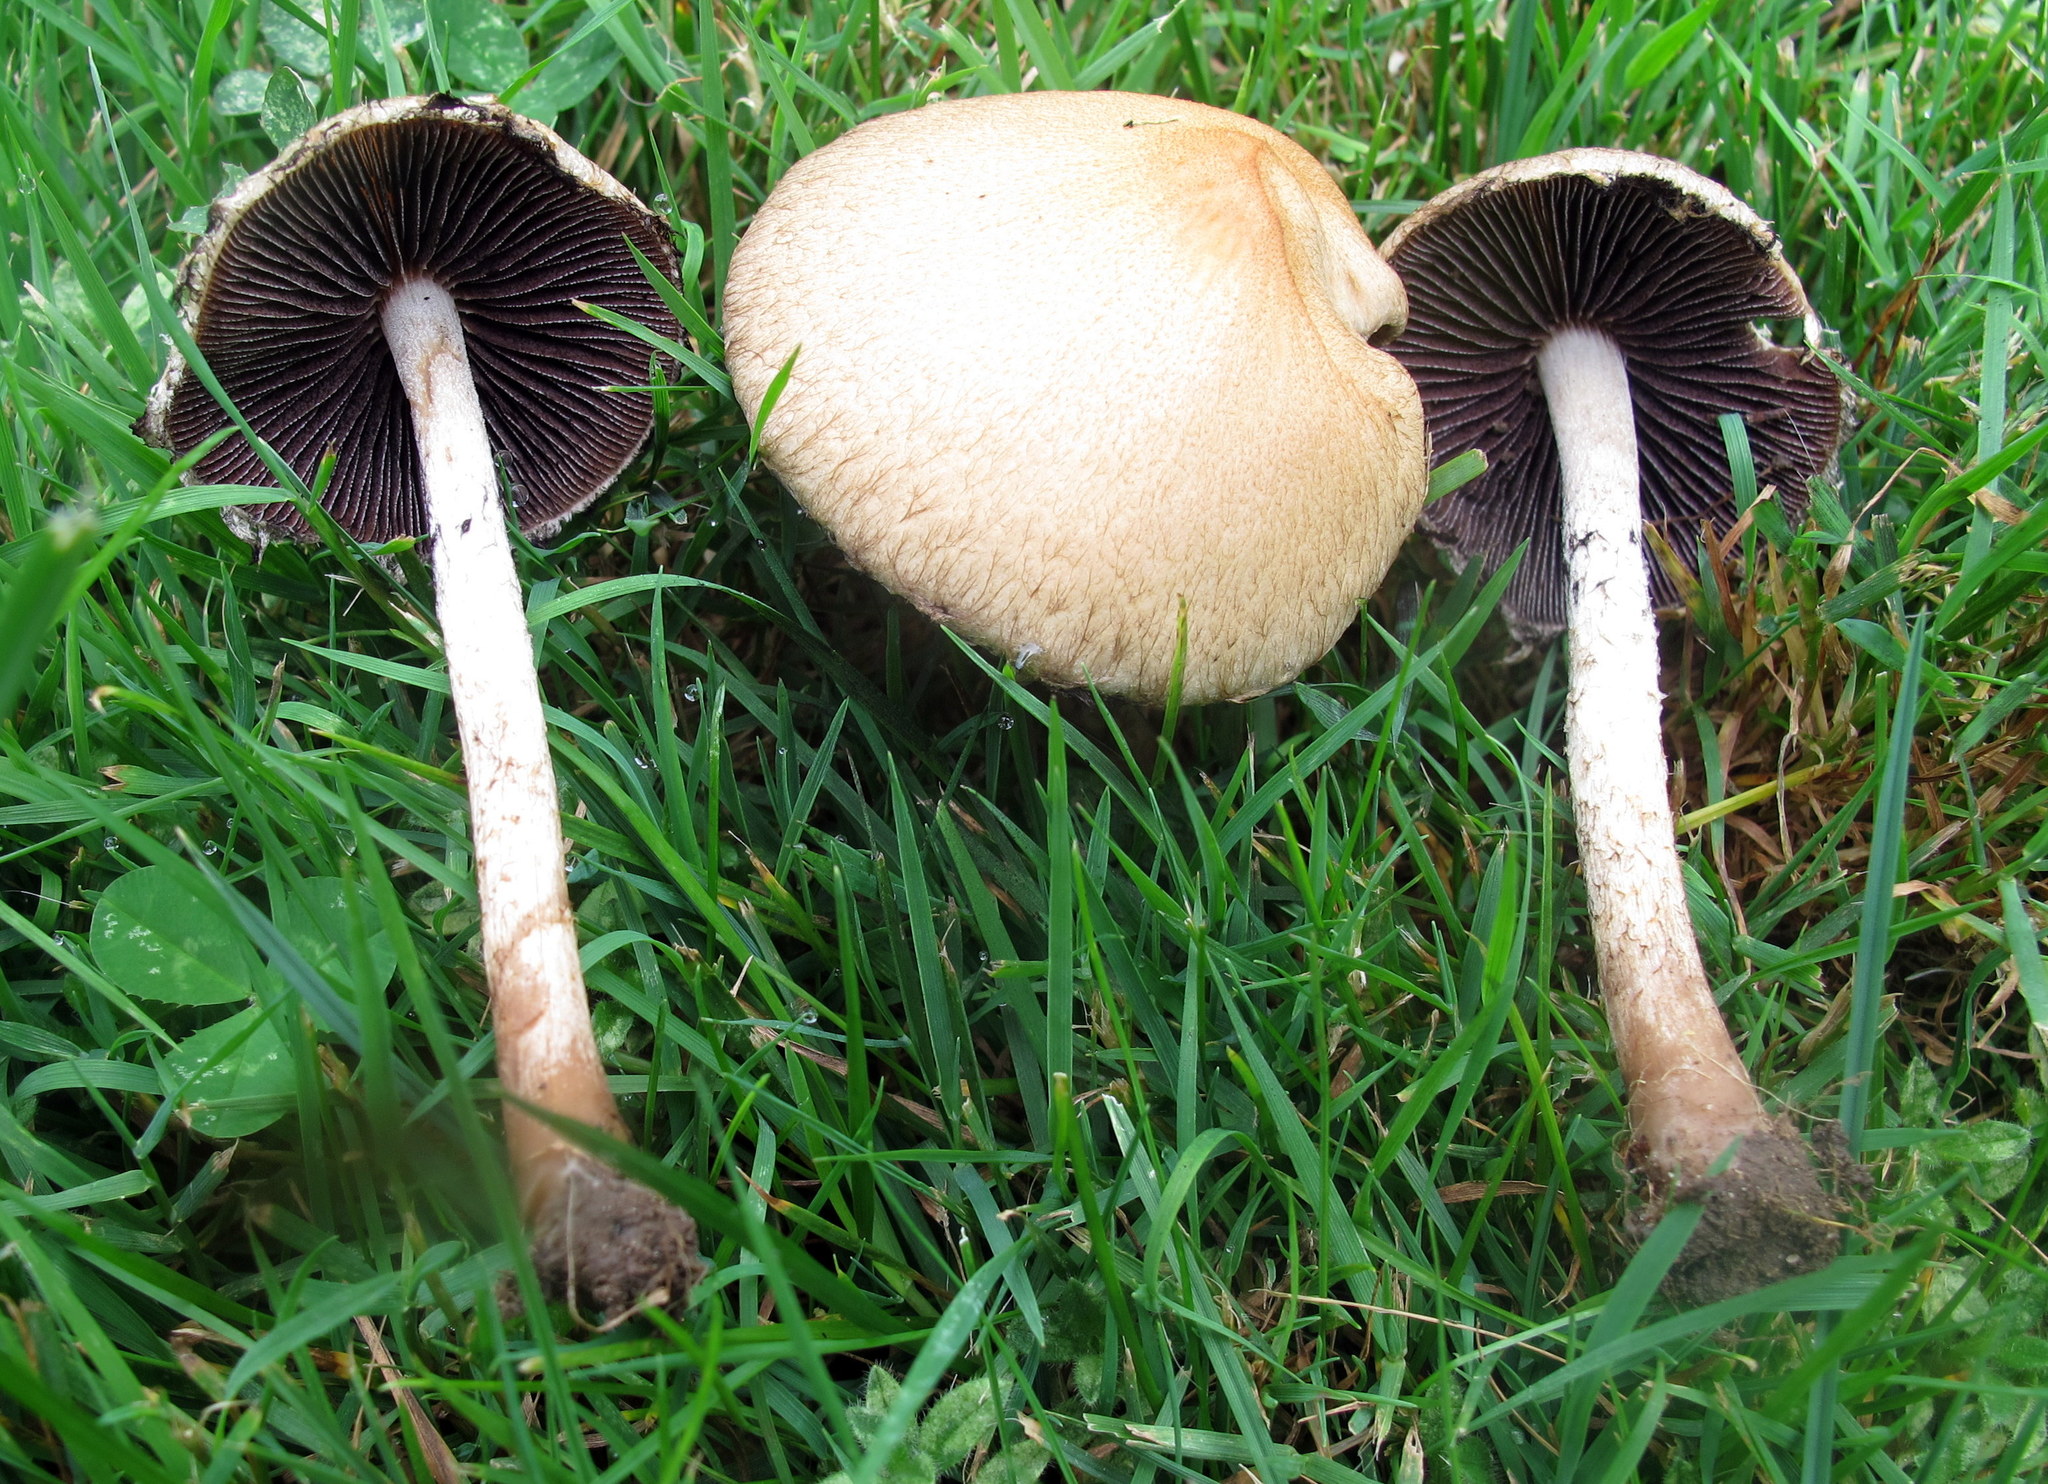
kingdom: Fungi
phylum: Basidiomycota
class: Agaricomycetes
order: Agaricales
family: Psathyrellaceae
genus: Lacrymaria
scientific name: Lacrymaria lacrymabunda
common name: Weeping widow
